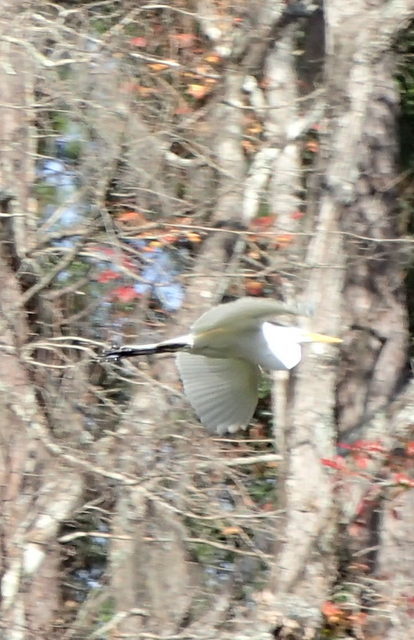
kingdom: Animalia
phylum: Chordata
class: Aves
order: Pelecaniformes
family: Ardeidae
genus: Ardea
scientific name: Ardea alba
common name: Great egret
